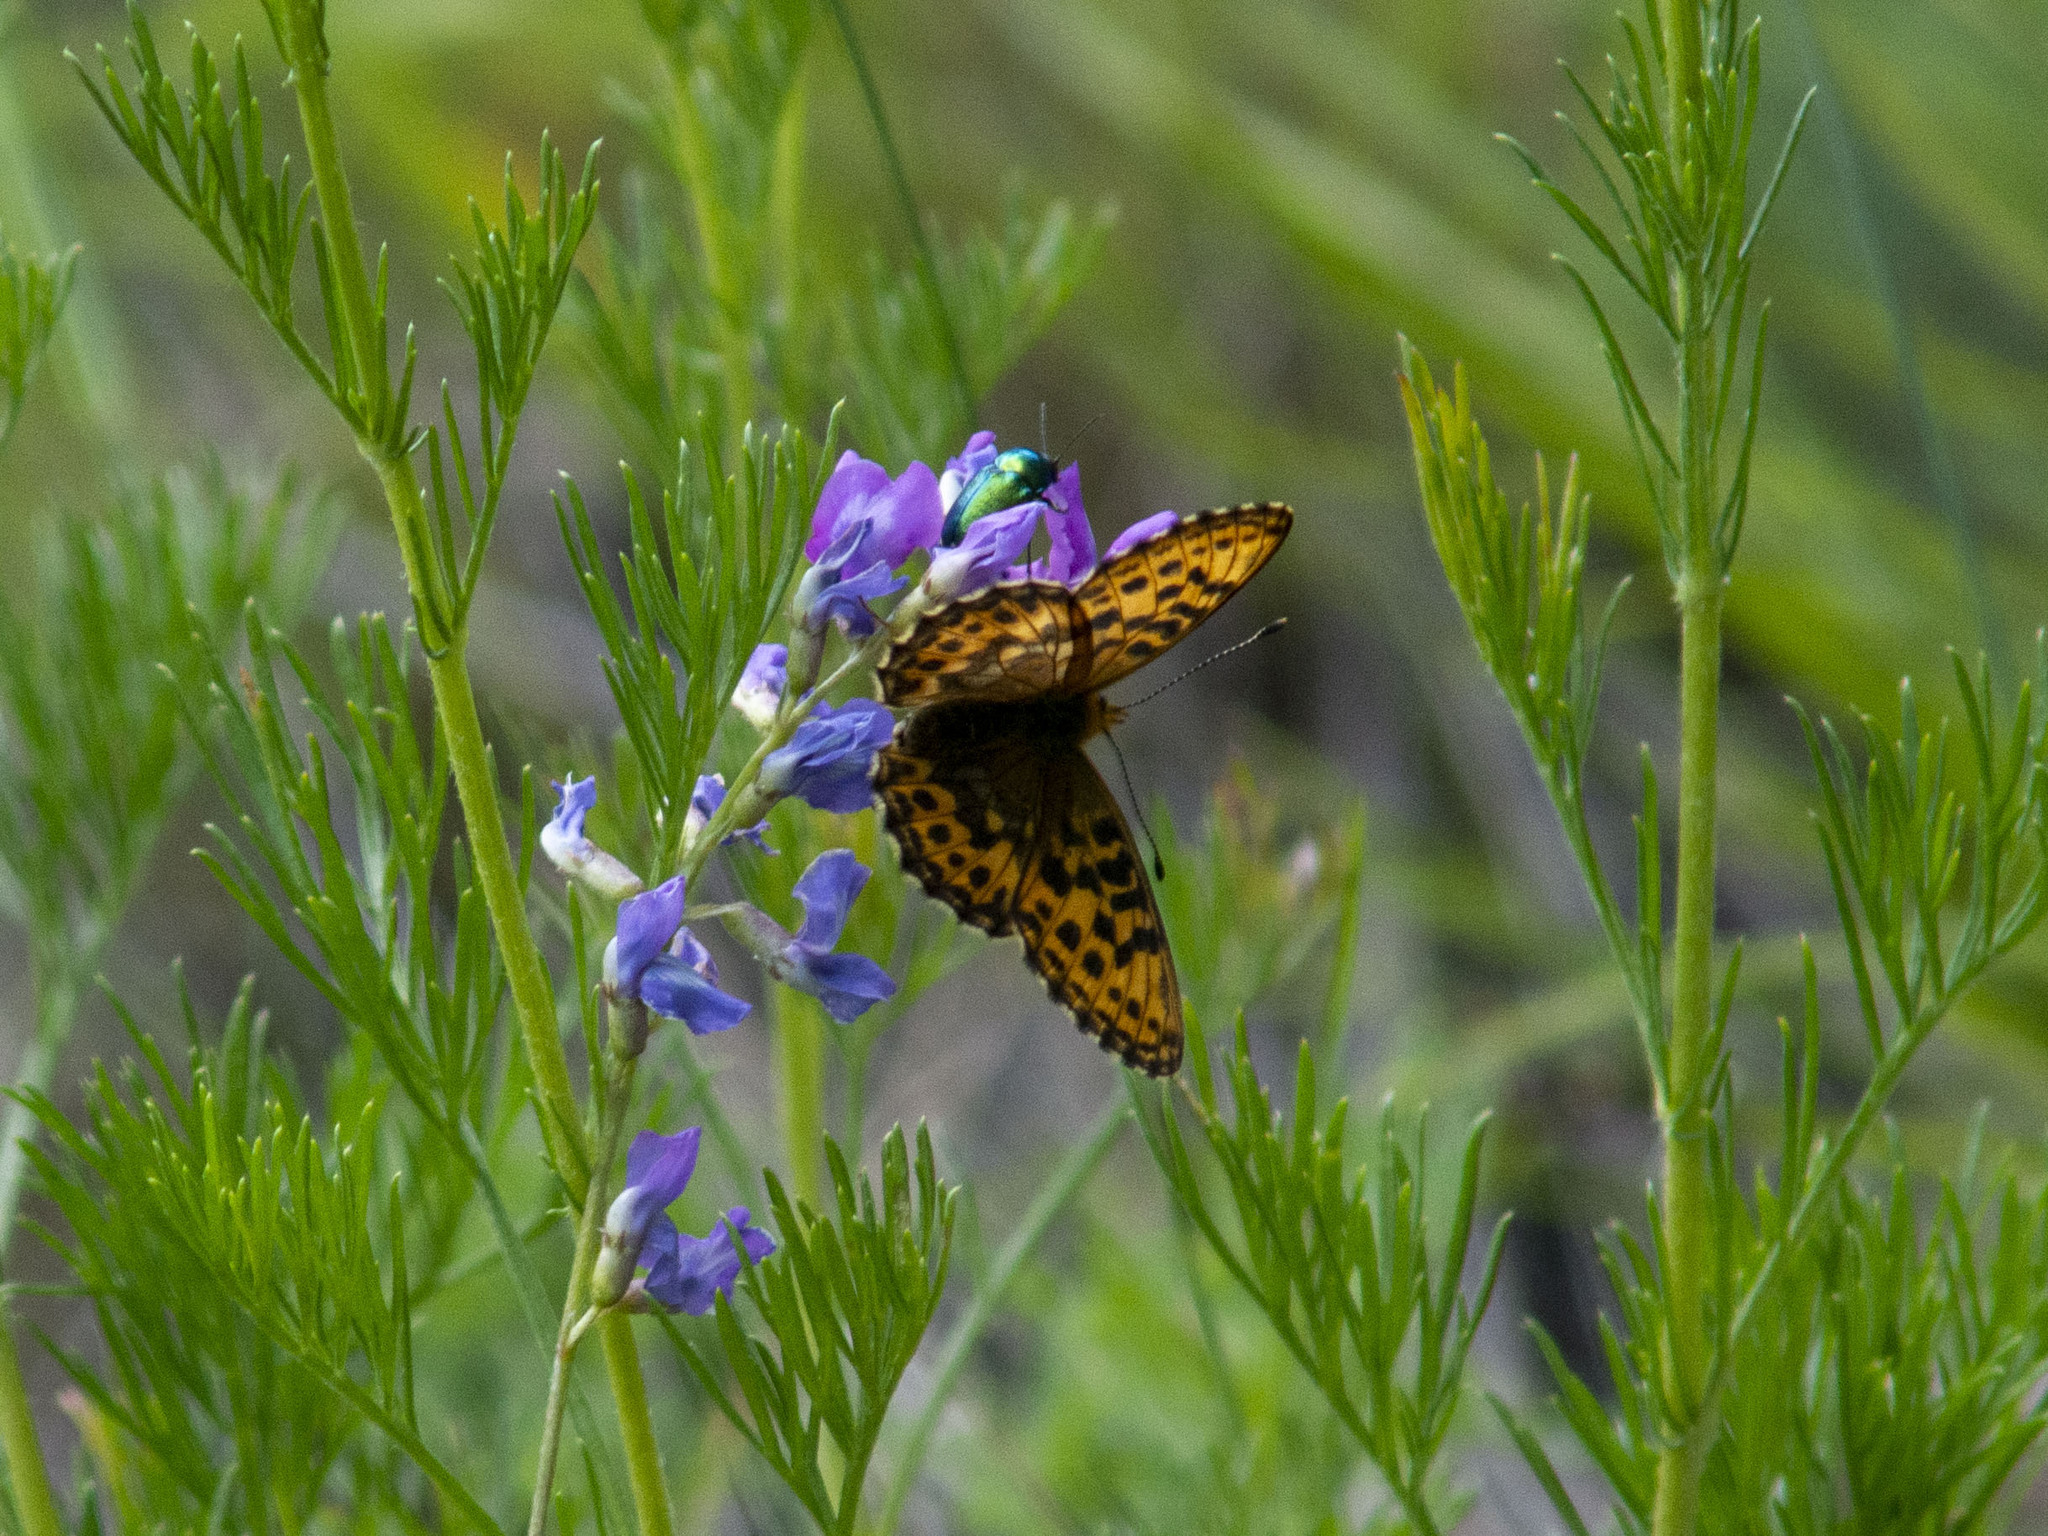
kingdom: Animalia
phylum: Arthropoda
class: Insecta
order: Lepidoptera
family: Nymphalidae
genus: Boloria
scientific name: Boloria thore
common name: Thor's fritillary
